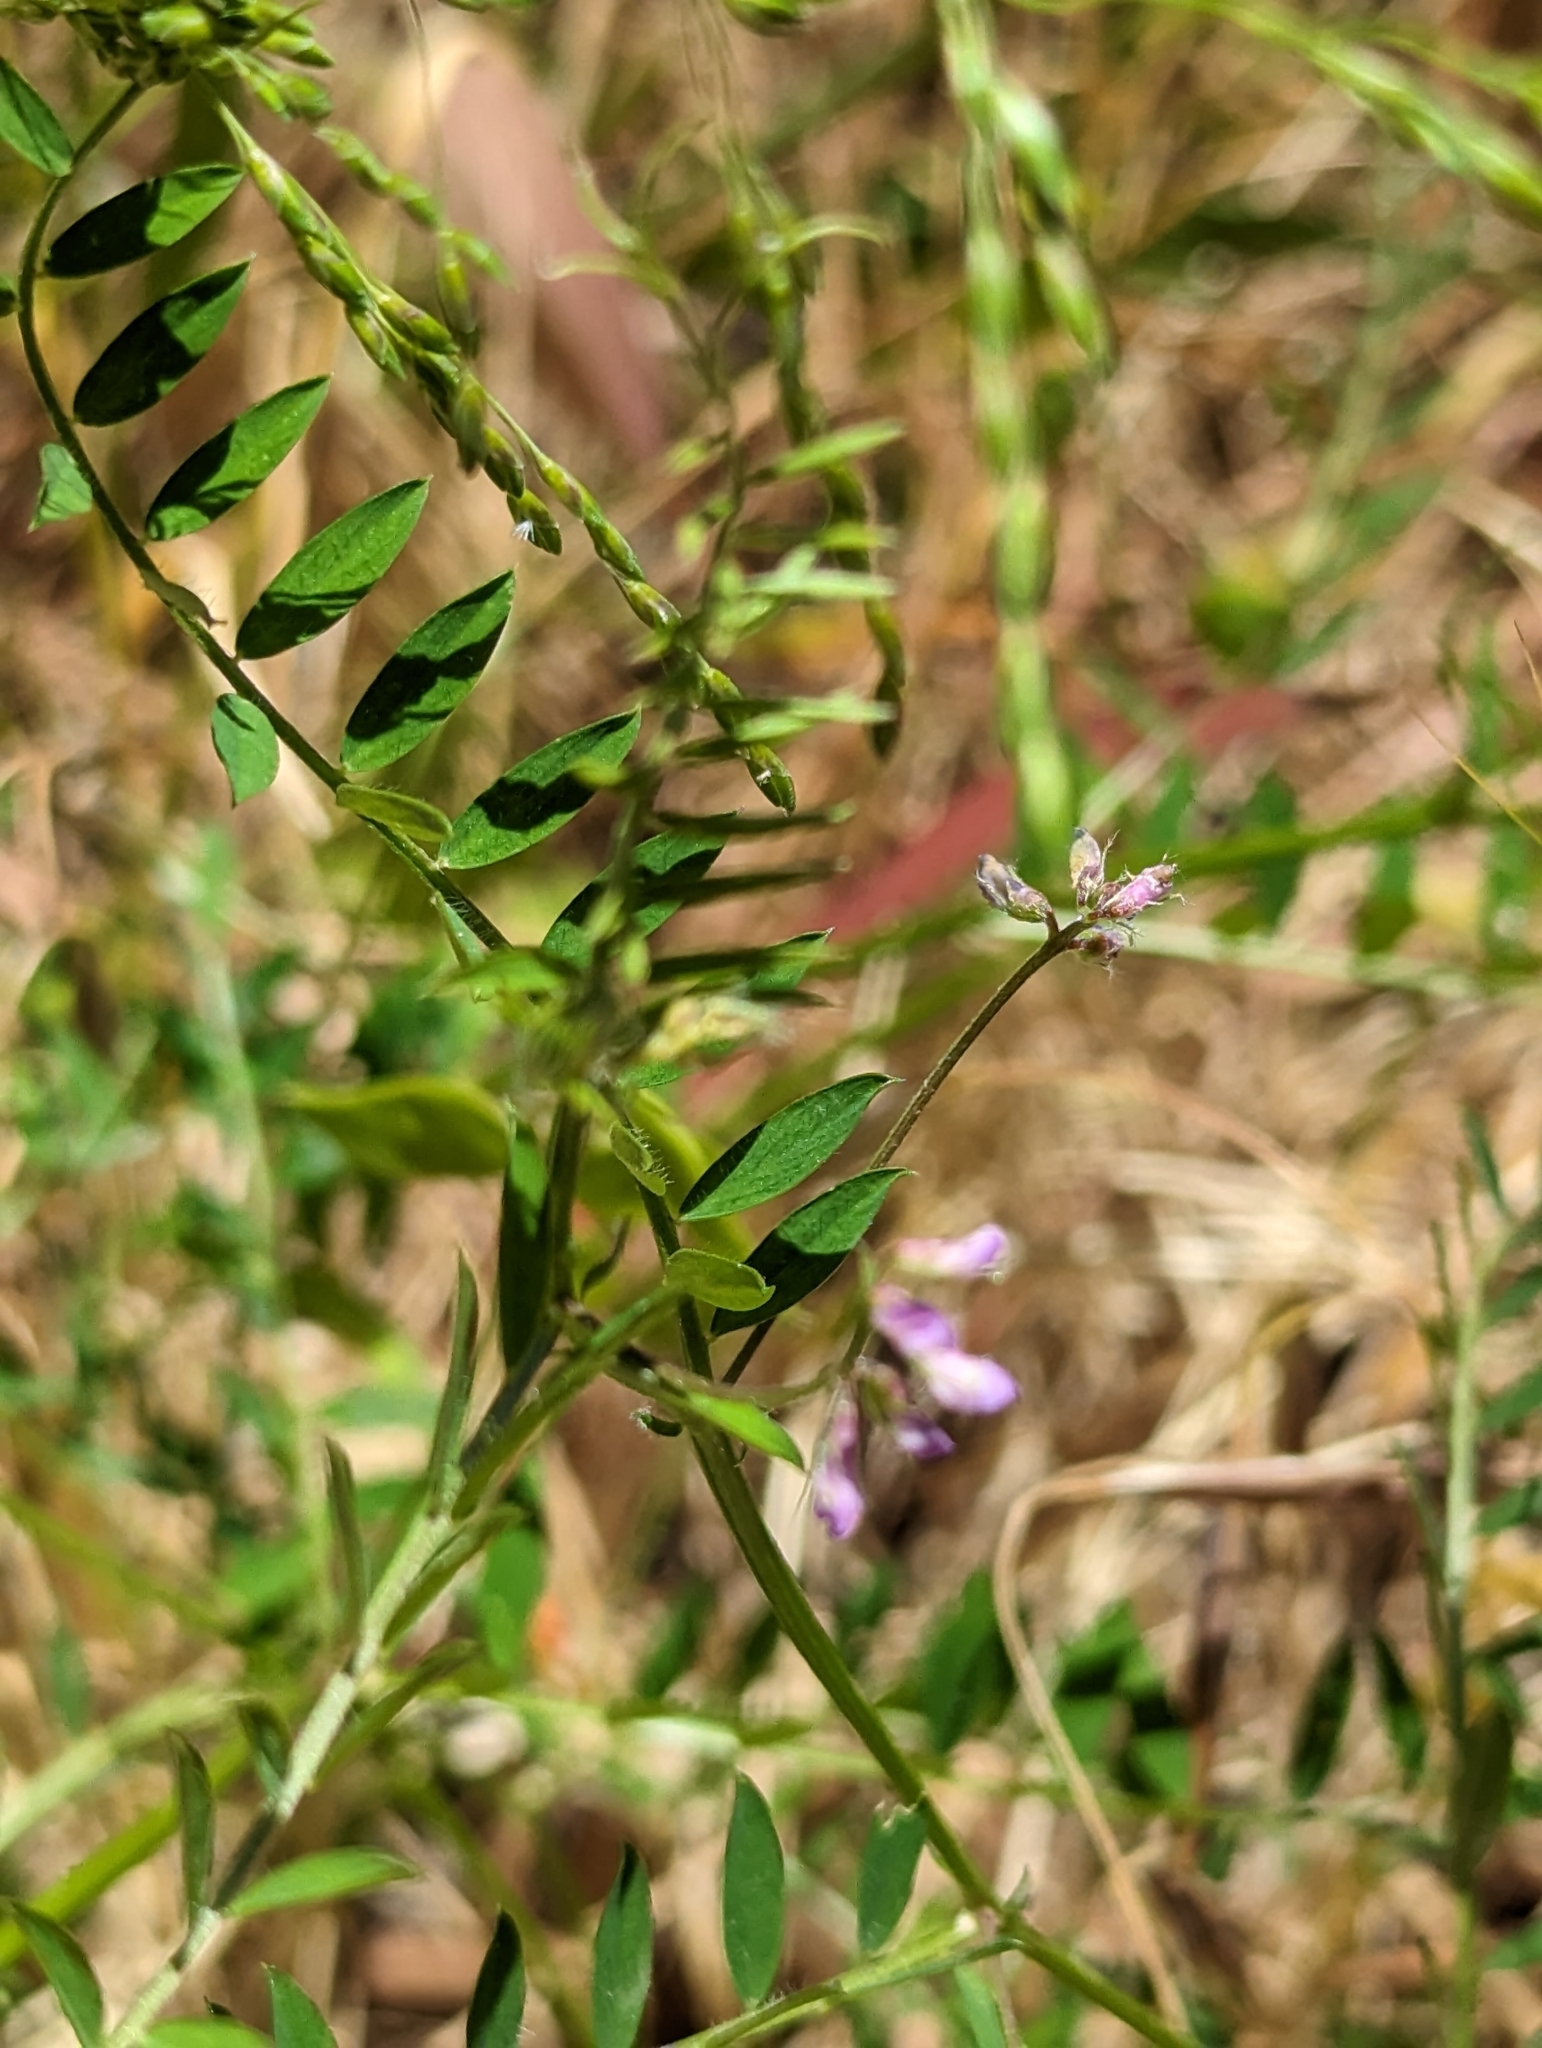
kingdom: Plantae
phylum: Tracheophyta
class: Magnoliopsida
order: Fabales
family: Fabaceae
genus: Vicia
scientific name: Vicia disperma
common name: European vetch
